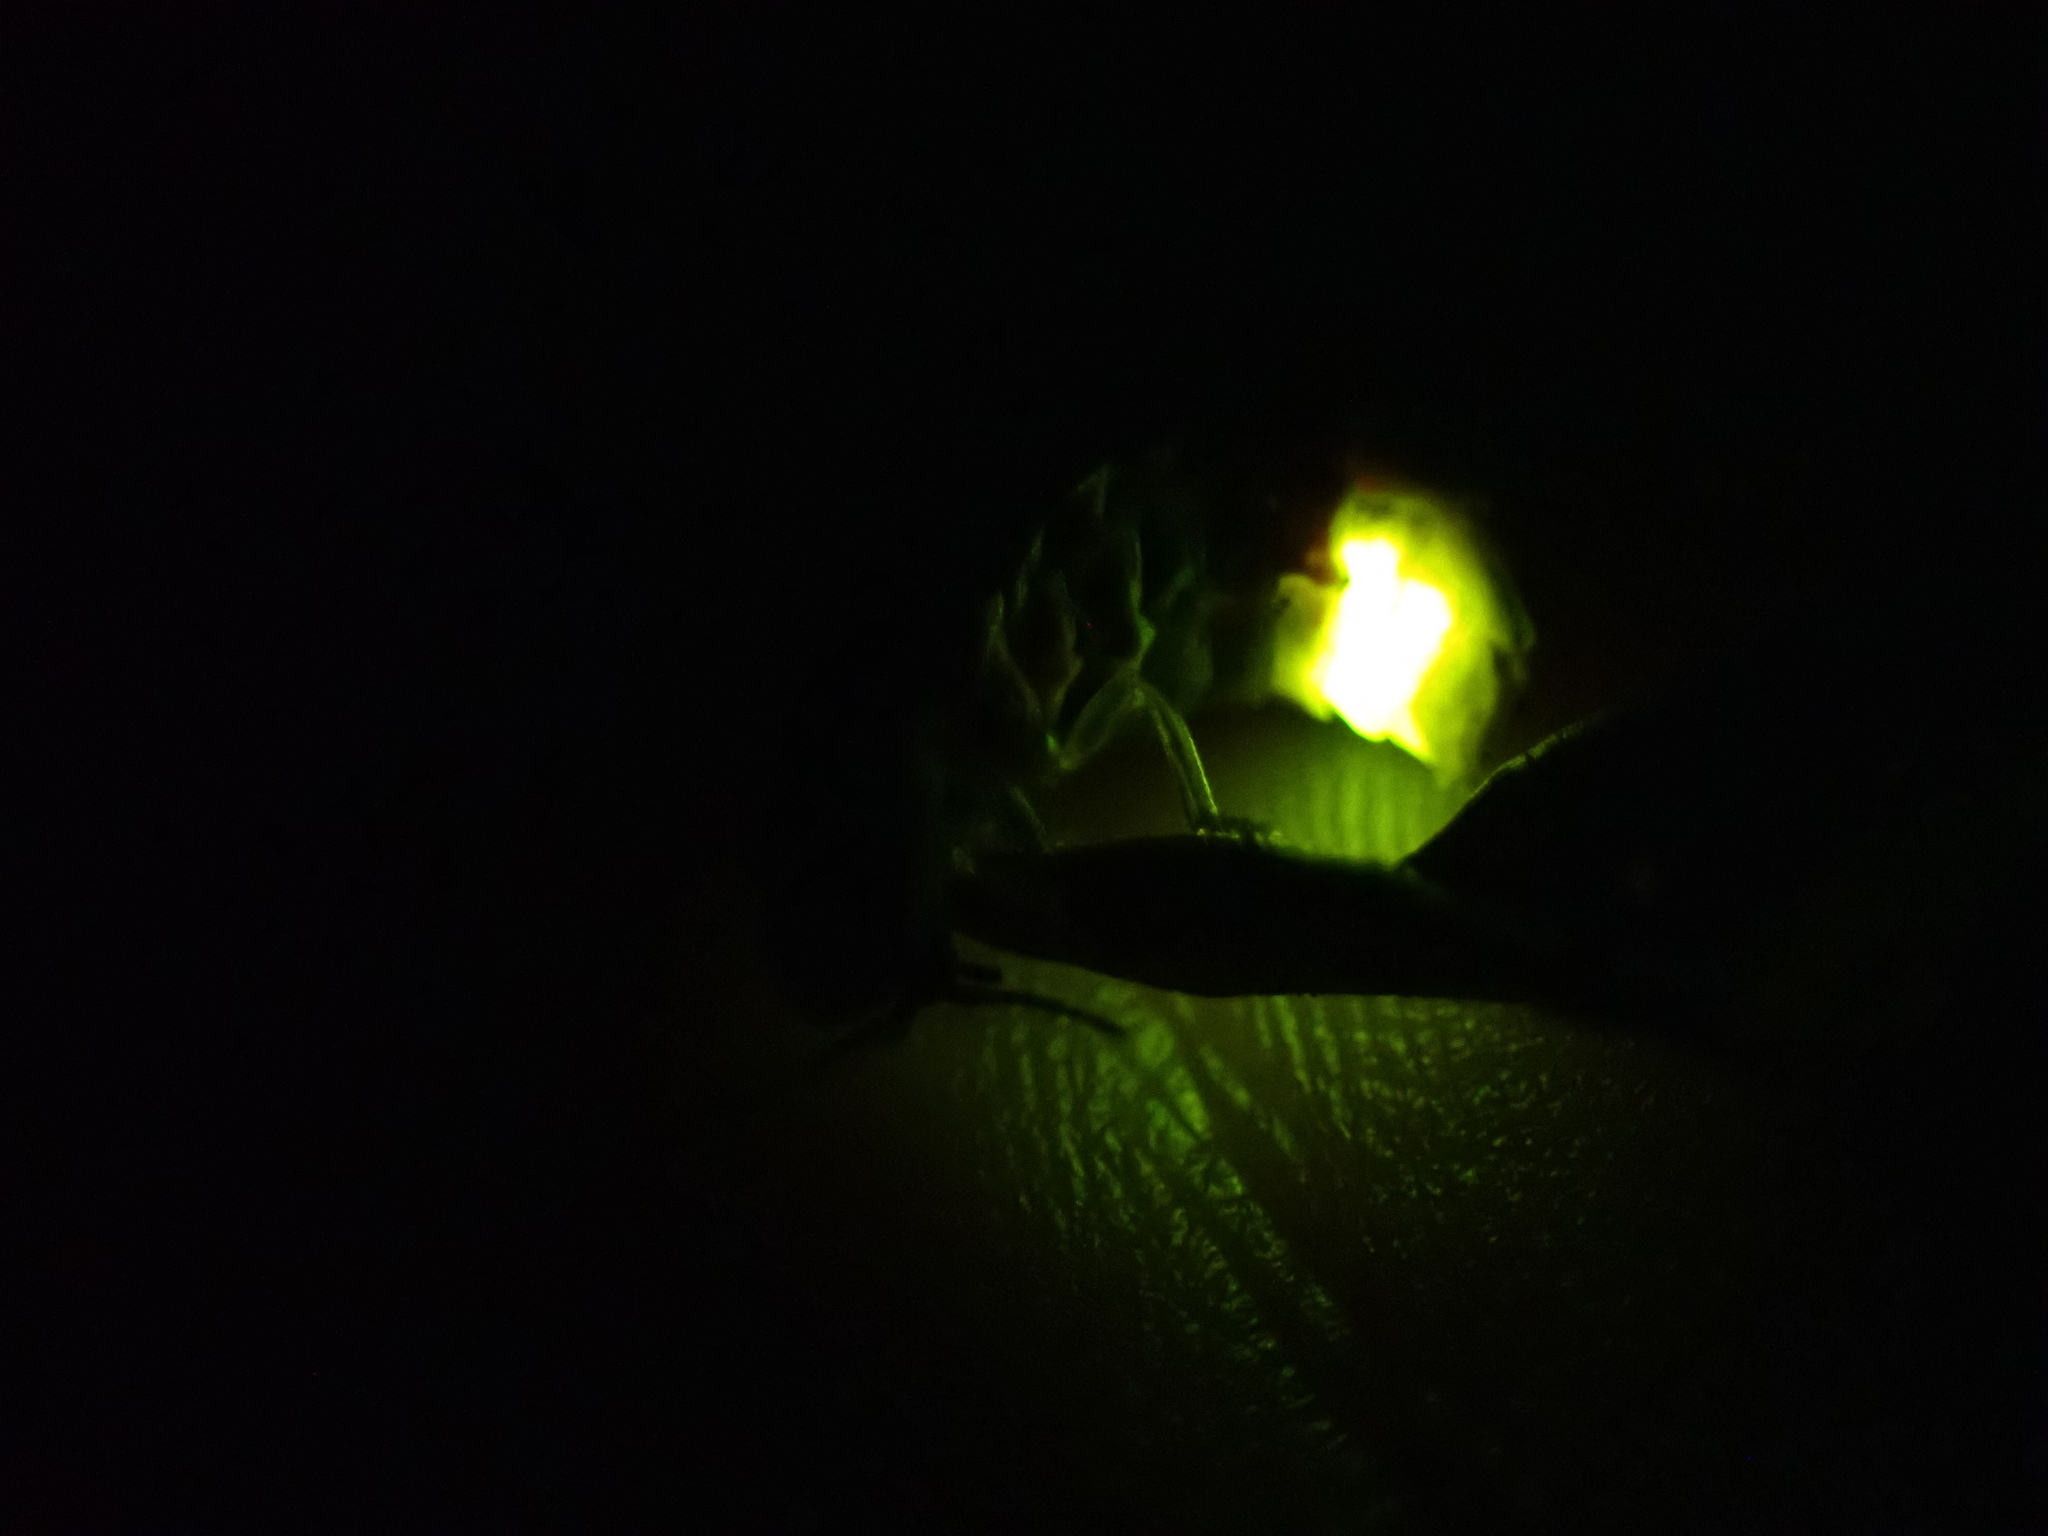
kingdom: Animalia
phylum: Arthropoda
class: Insecta
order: Coleoptera
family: Lampyridae
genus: Lampyris
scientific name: Lampyris noctiluca
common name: Glow-worm
